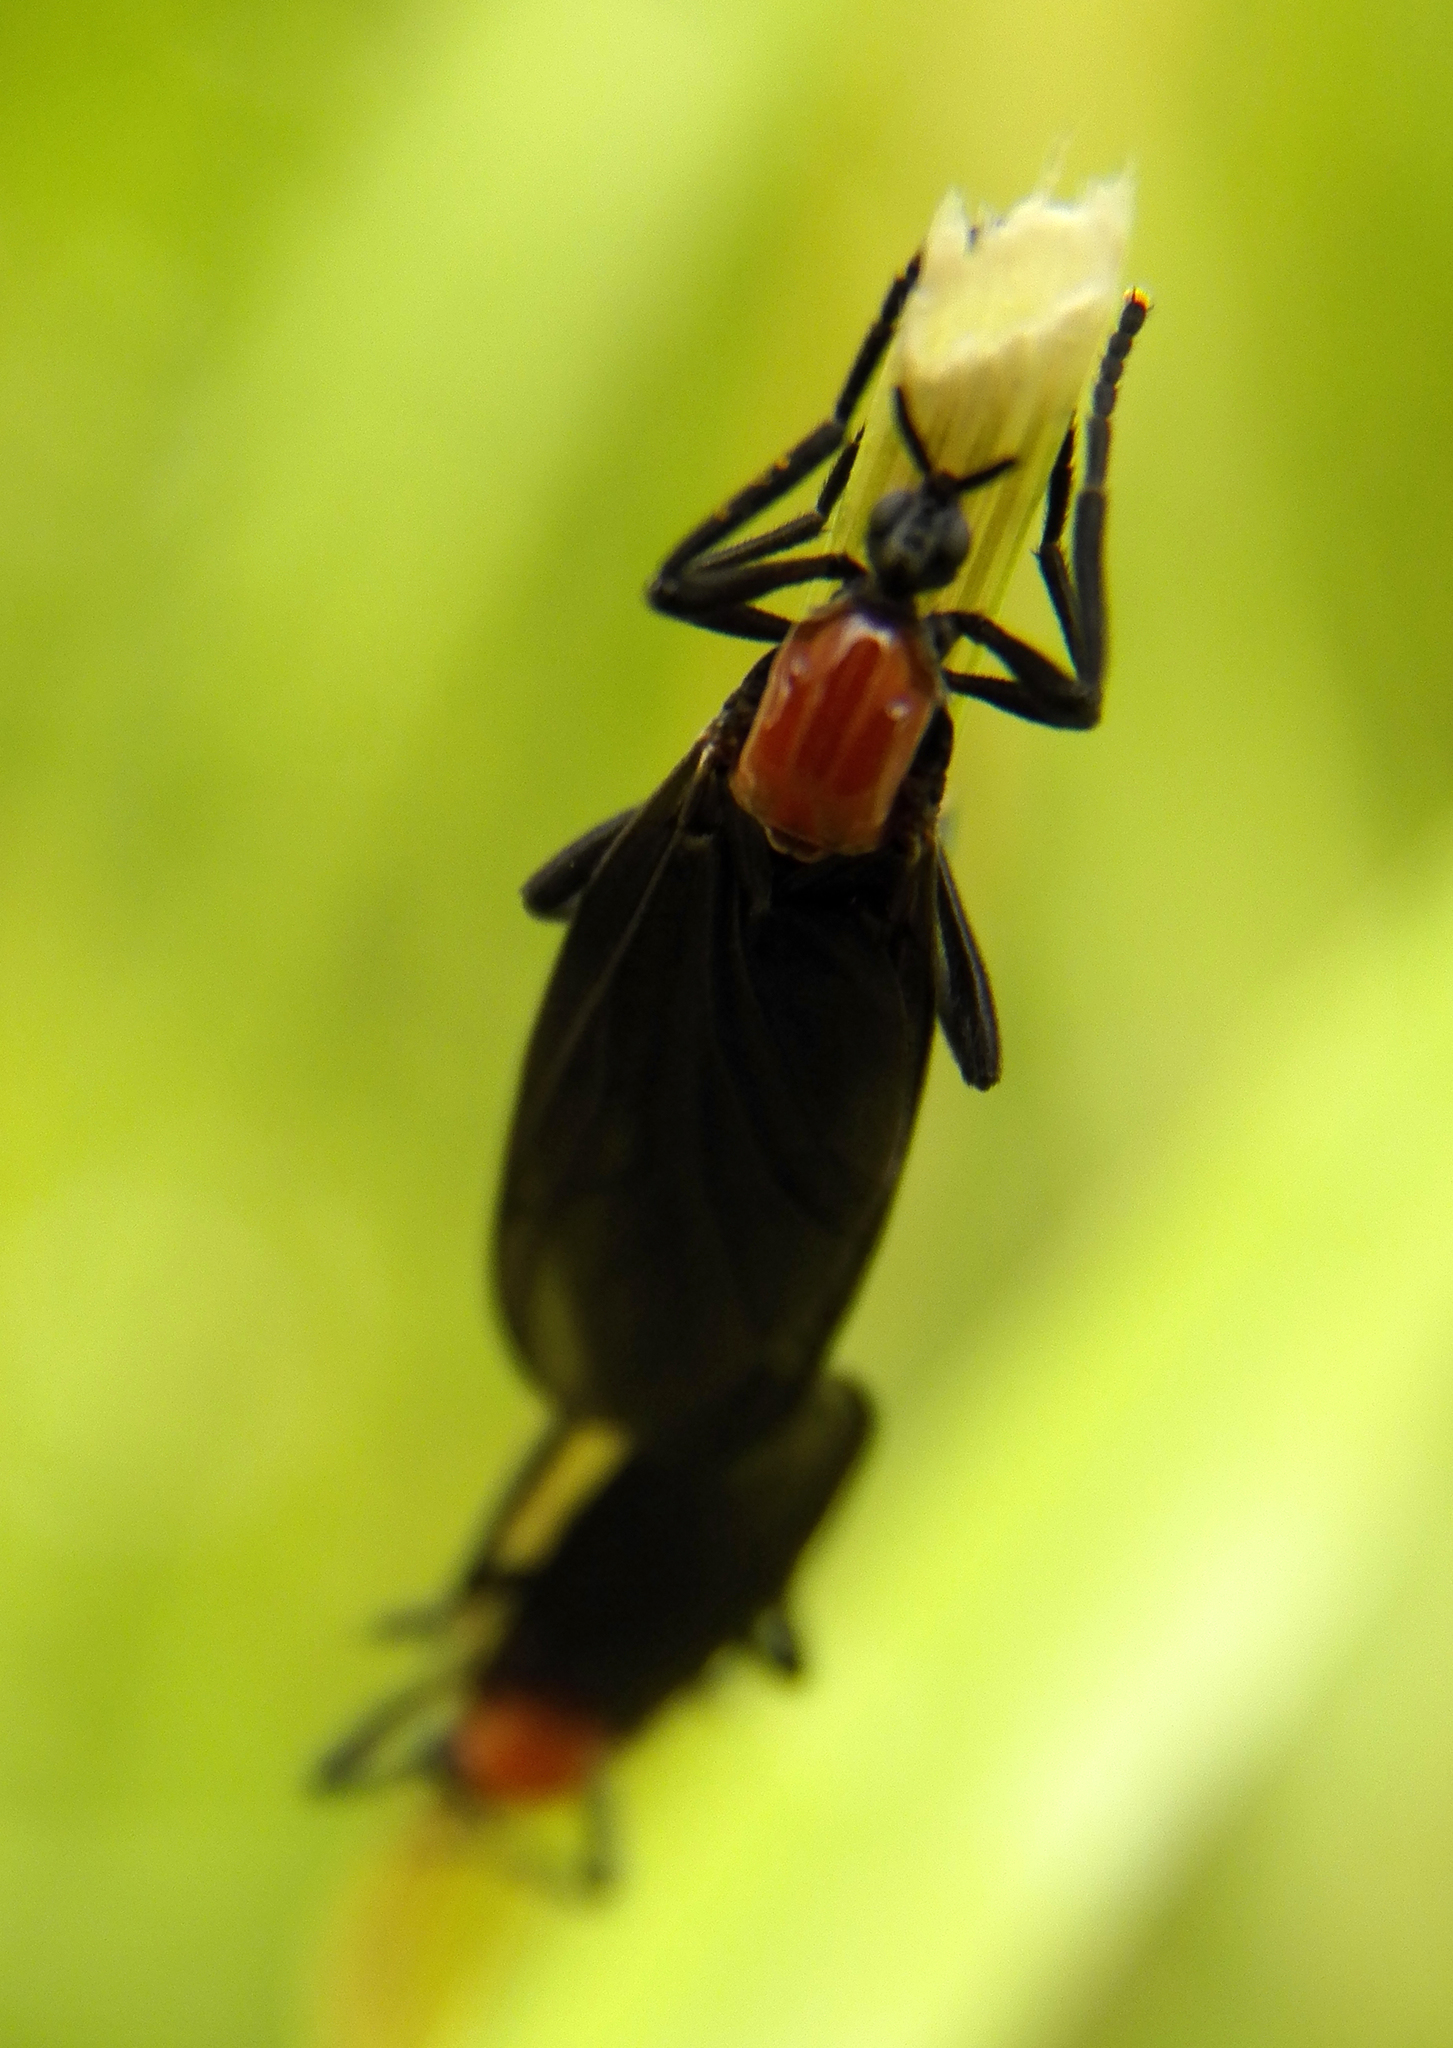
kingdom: Animalia
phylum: Arthropoda
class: Insecta
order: Diptera
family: Bibionidae
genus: Plecia
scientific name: Plecia nearctica
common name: March fly
